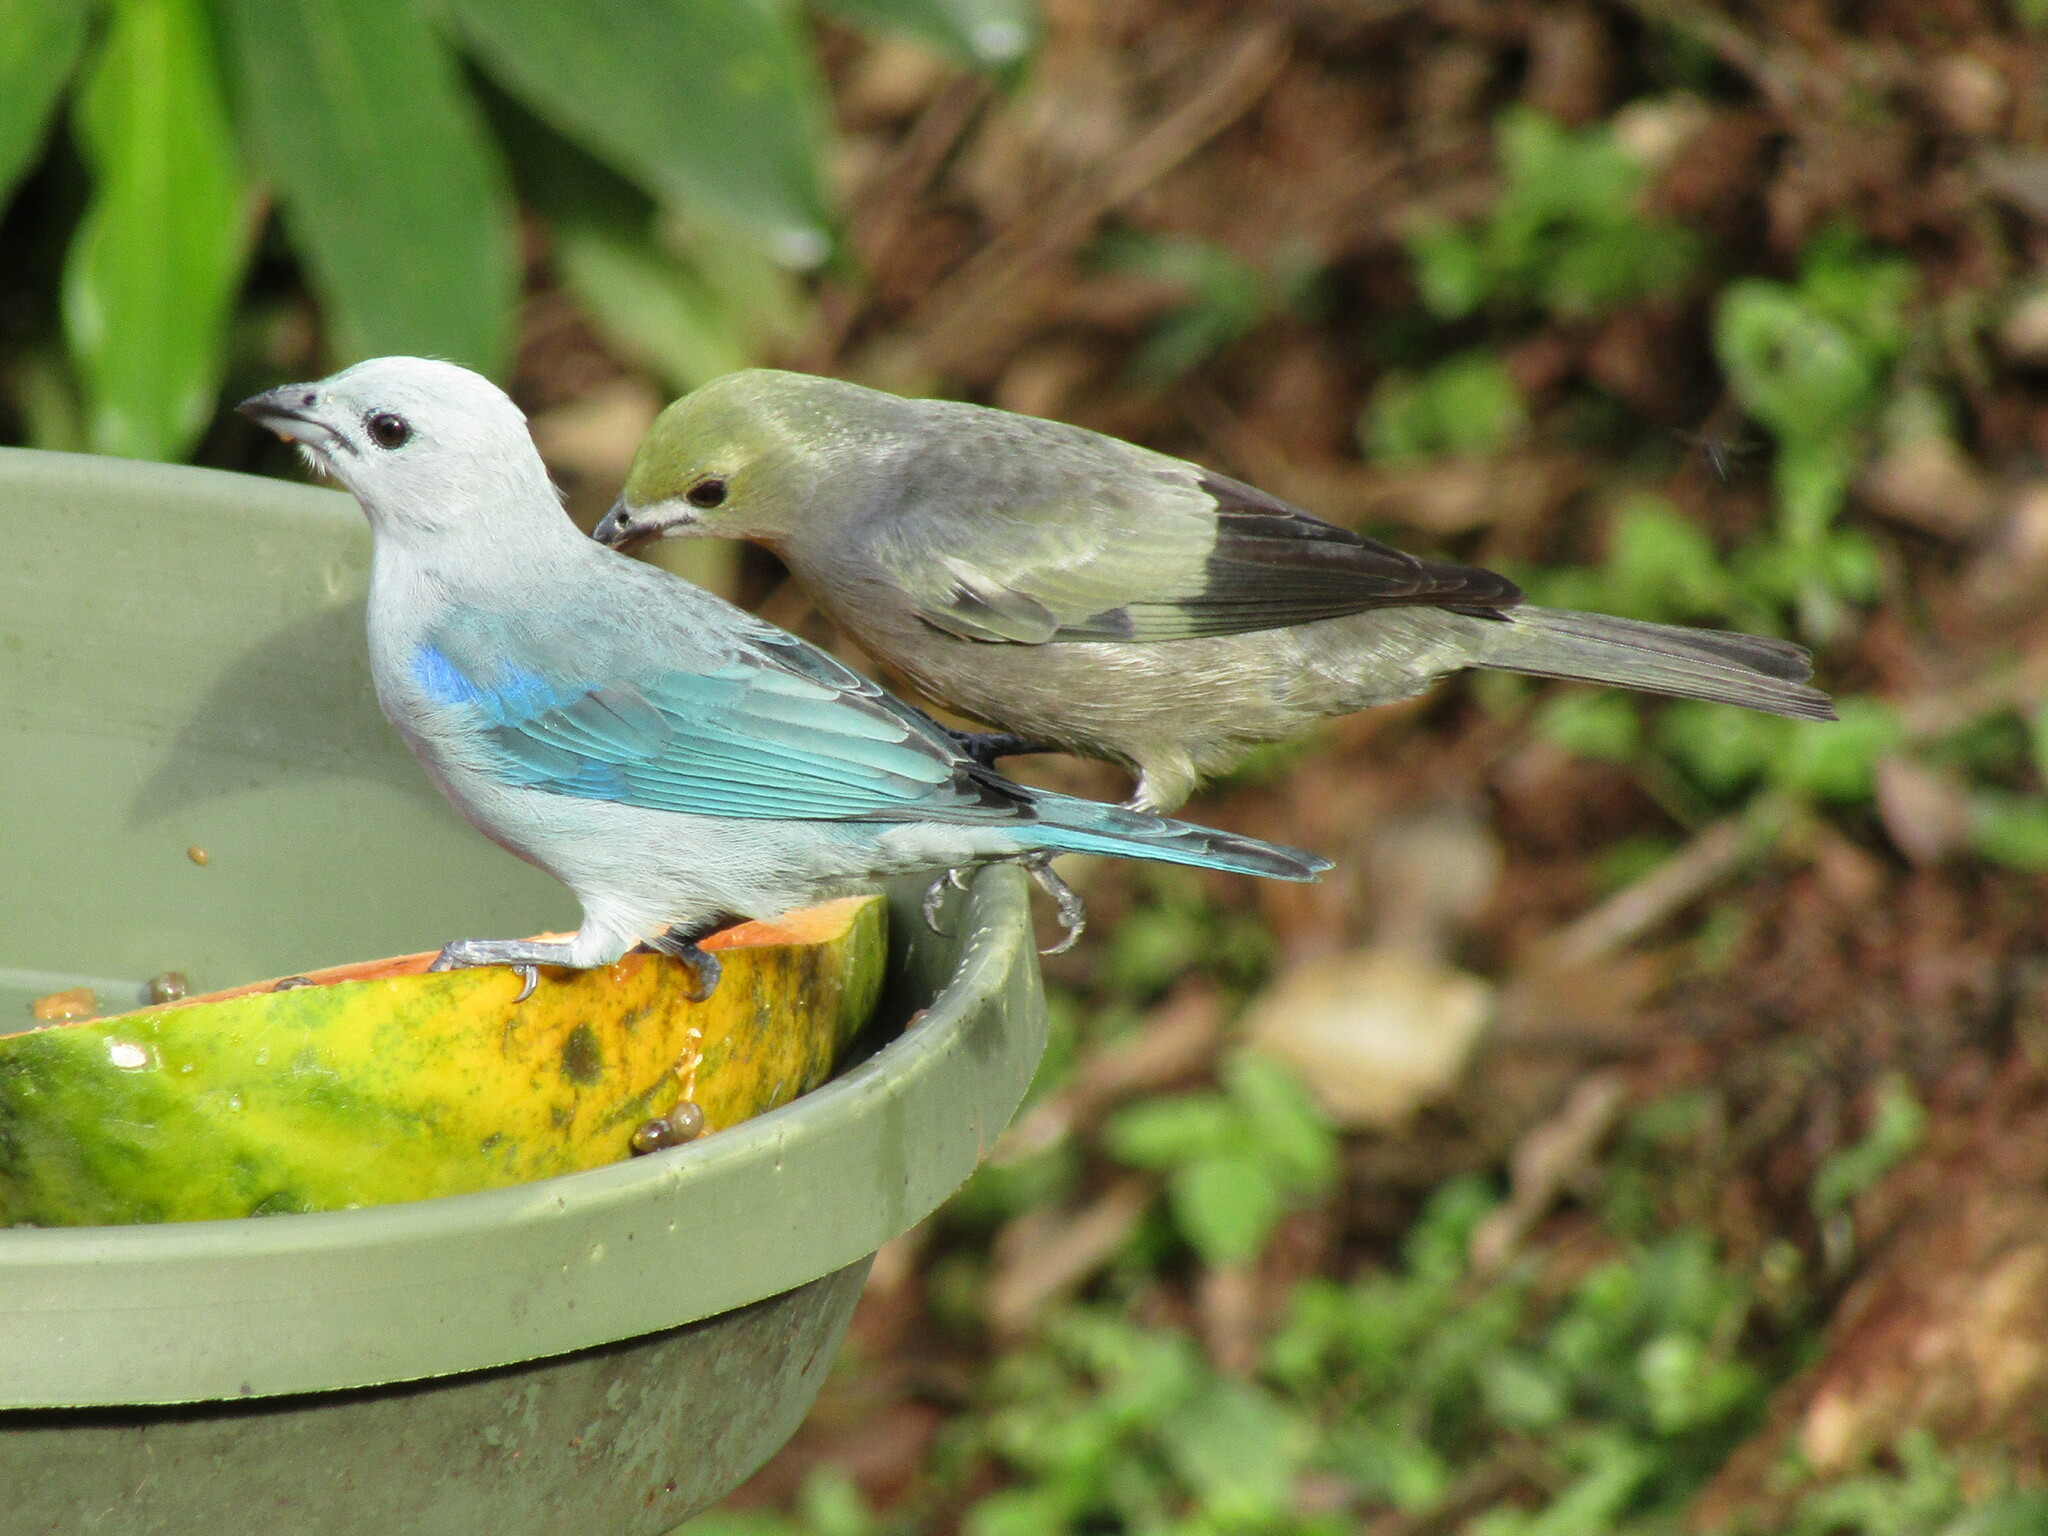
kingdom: Animalia
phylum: Chordata
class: Aves
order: Passeriformes
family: Thraupidae
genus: Thraupis
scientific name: Thraupis episcopus
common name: Blue-grey tanager
